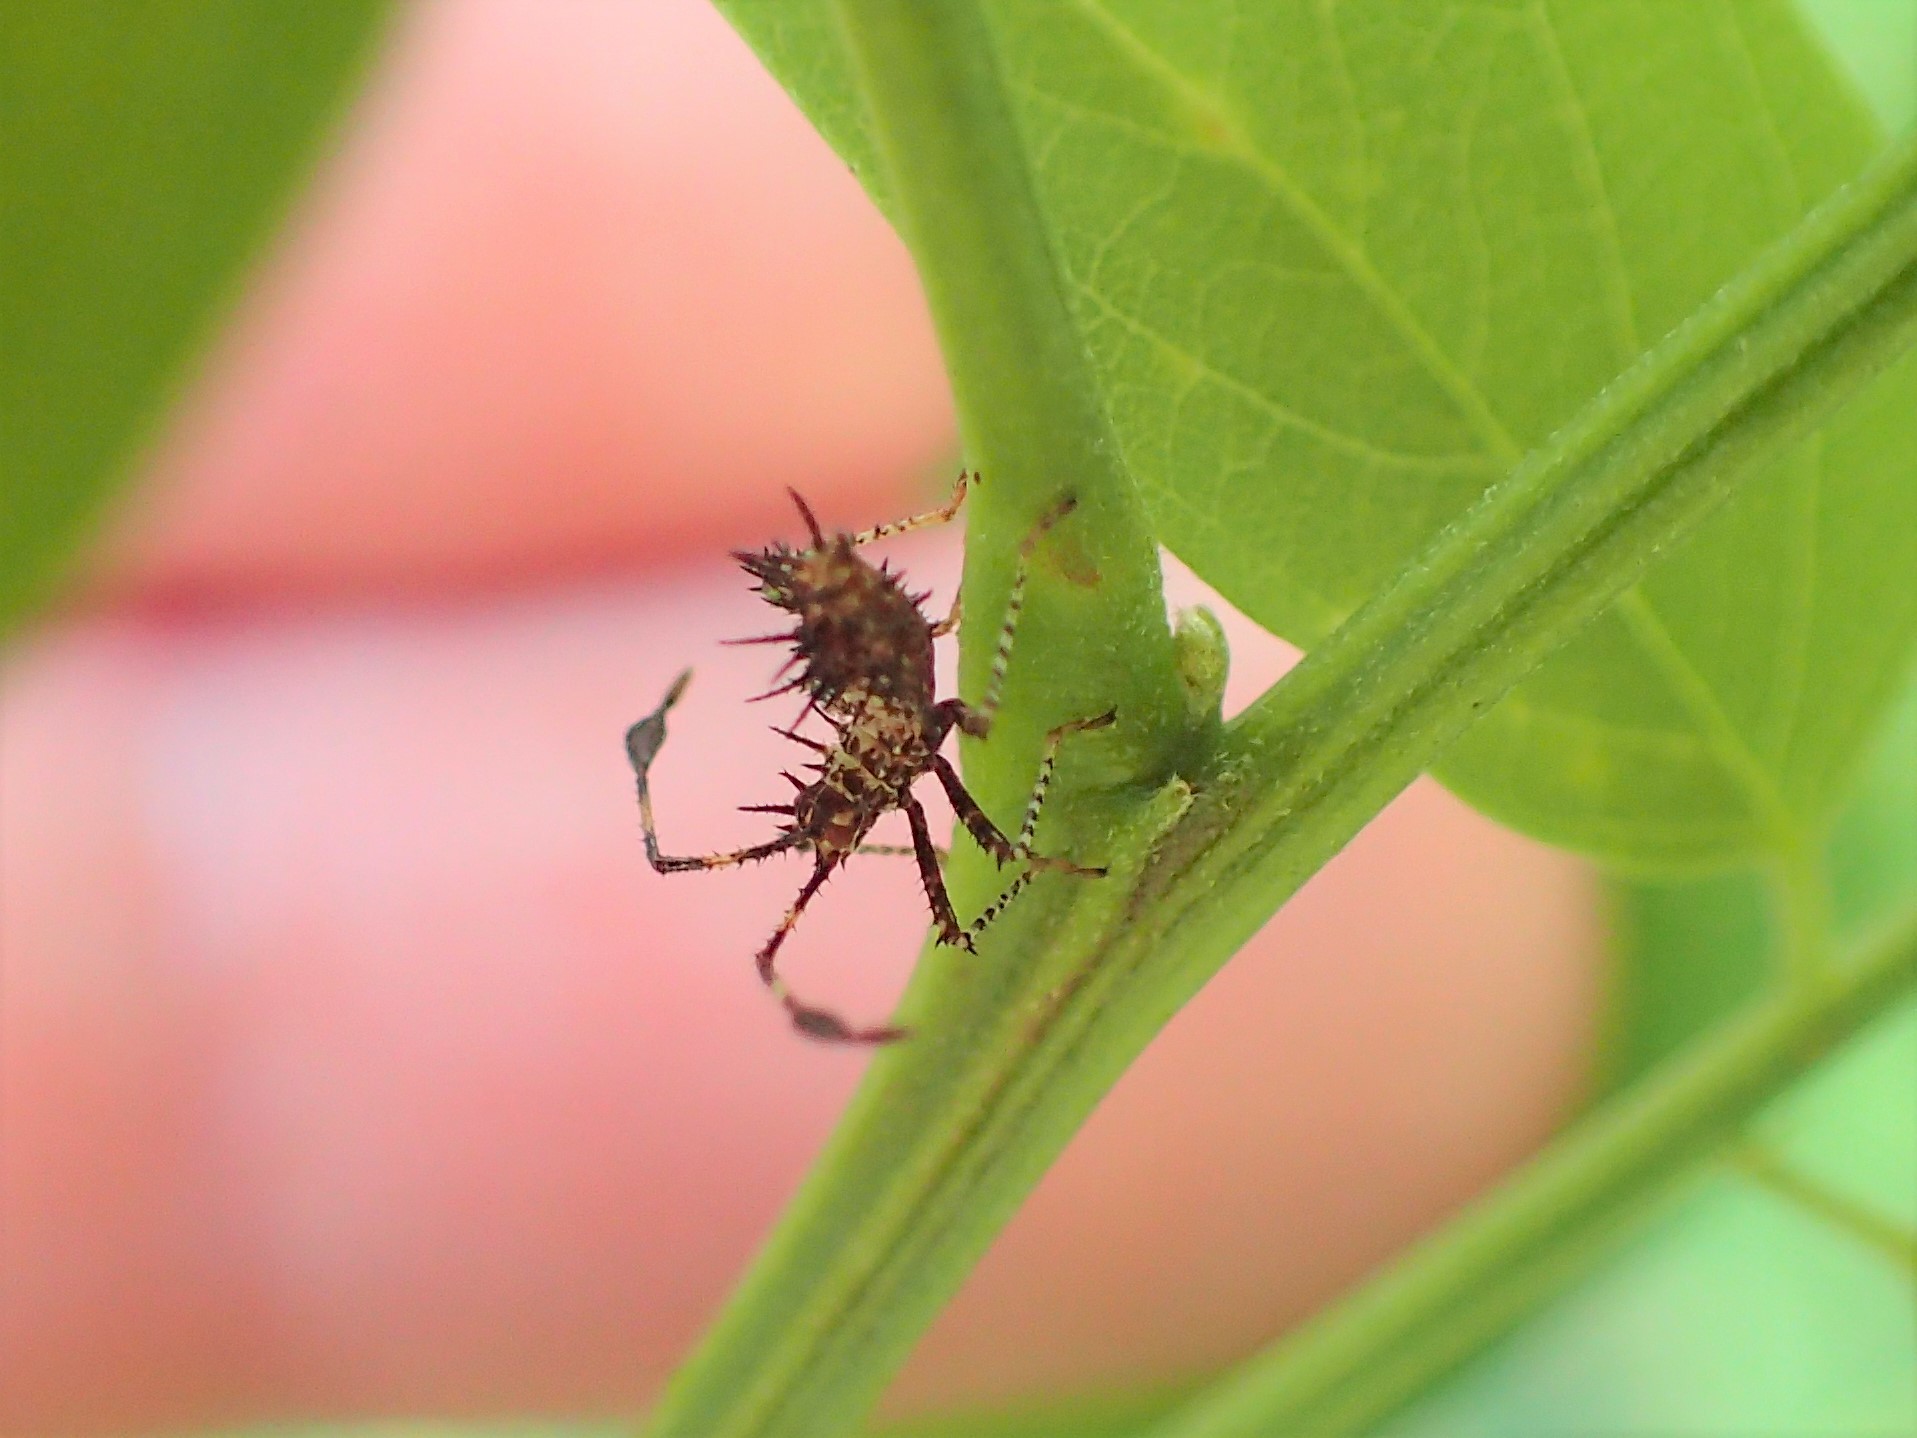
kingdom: Animalia
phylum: Arthropoda
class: Insecta
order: Hemiptera
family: Coreidae
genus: Euthochtha
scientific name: Euthochtha galeator
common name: Helmeted squash bug
